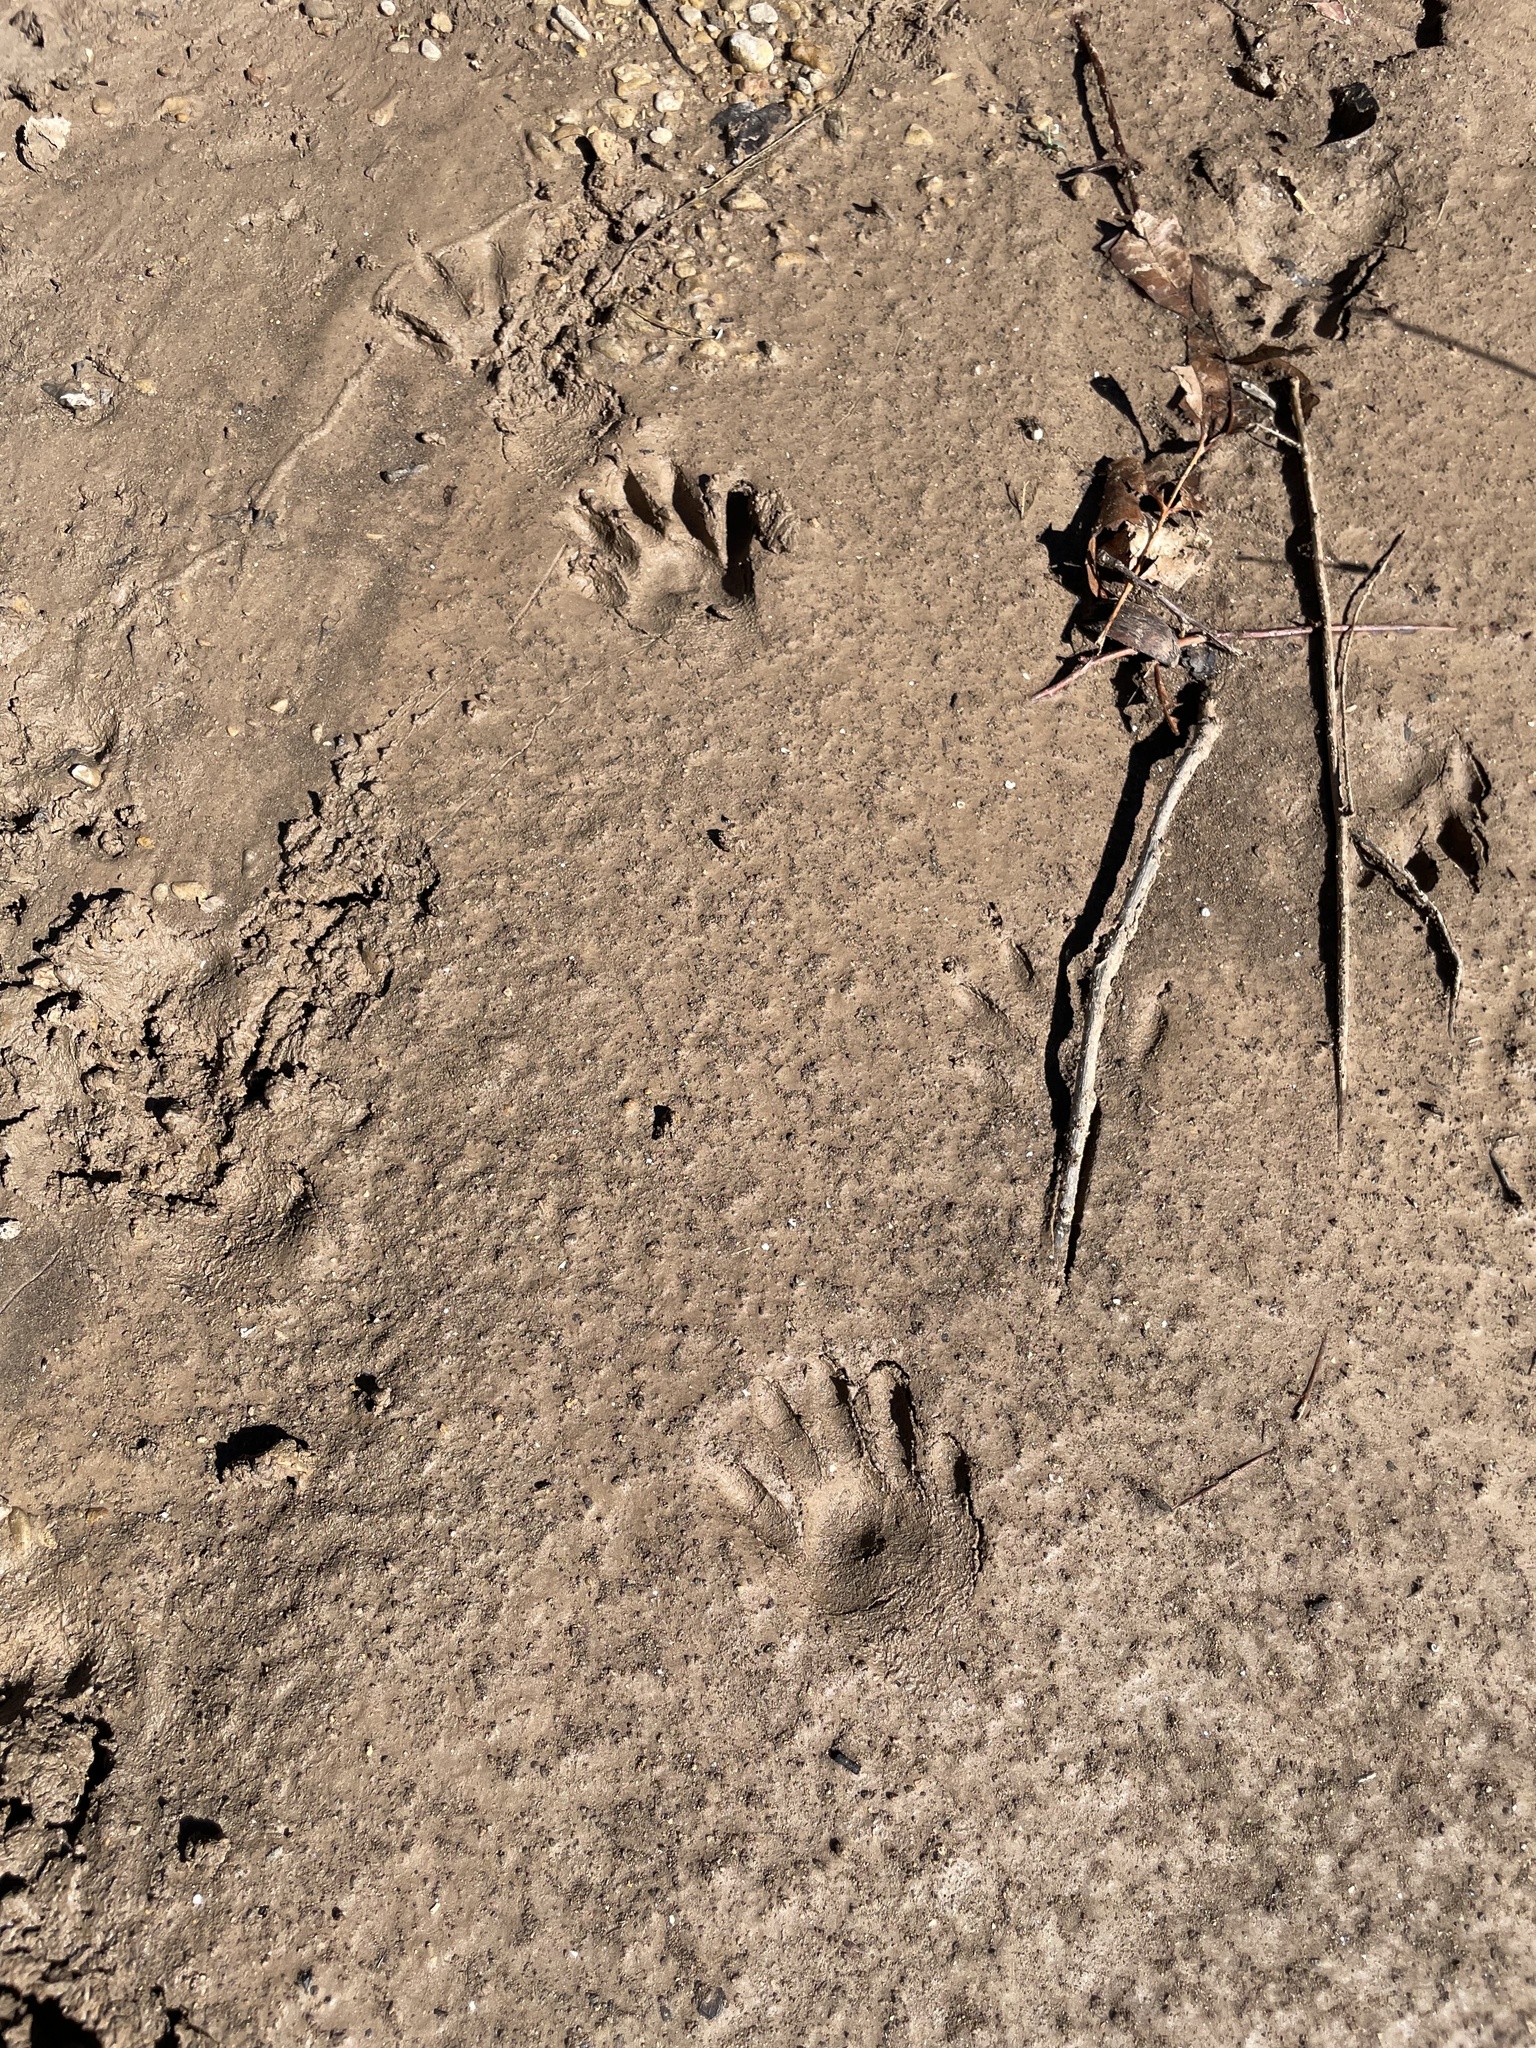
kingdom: Animalia
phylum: Chordata
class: Mammalia
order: Carnivora
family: Procyonidae
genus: Procyon
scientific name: Procyon lotor
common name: Raccoon
